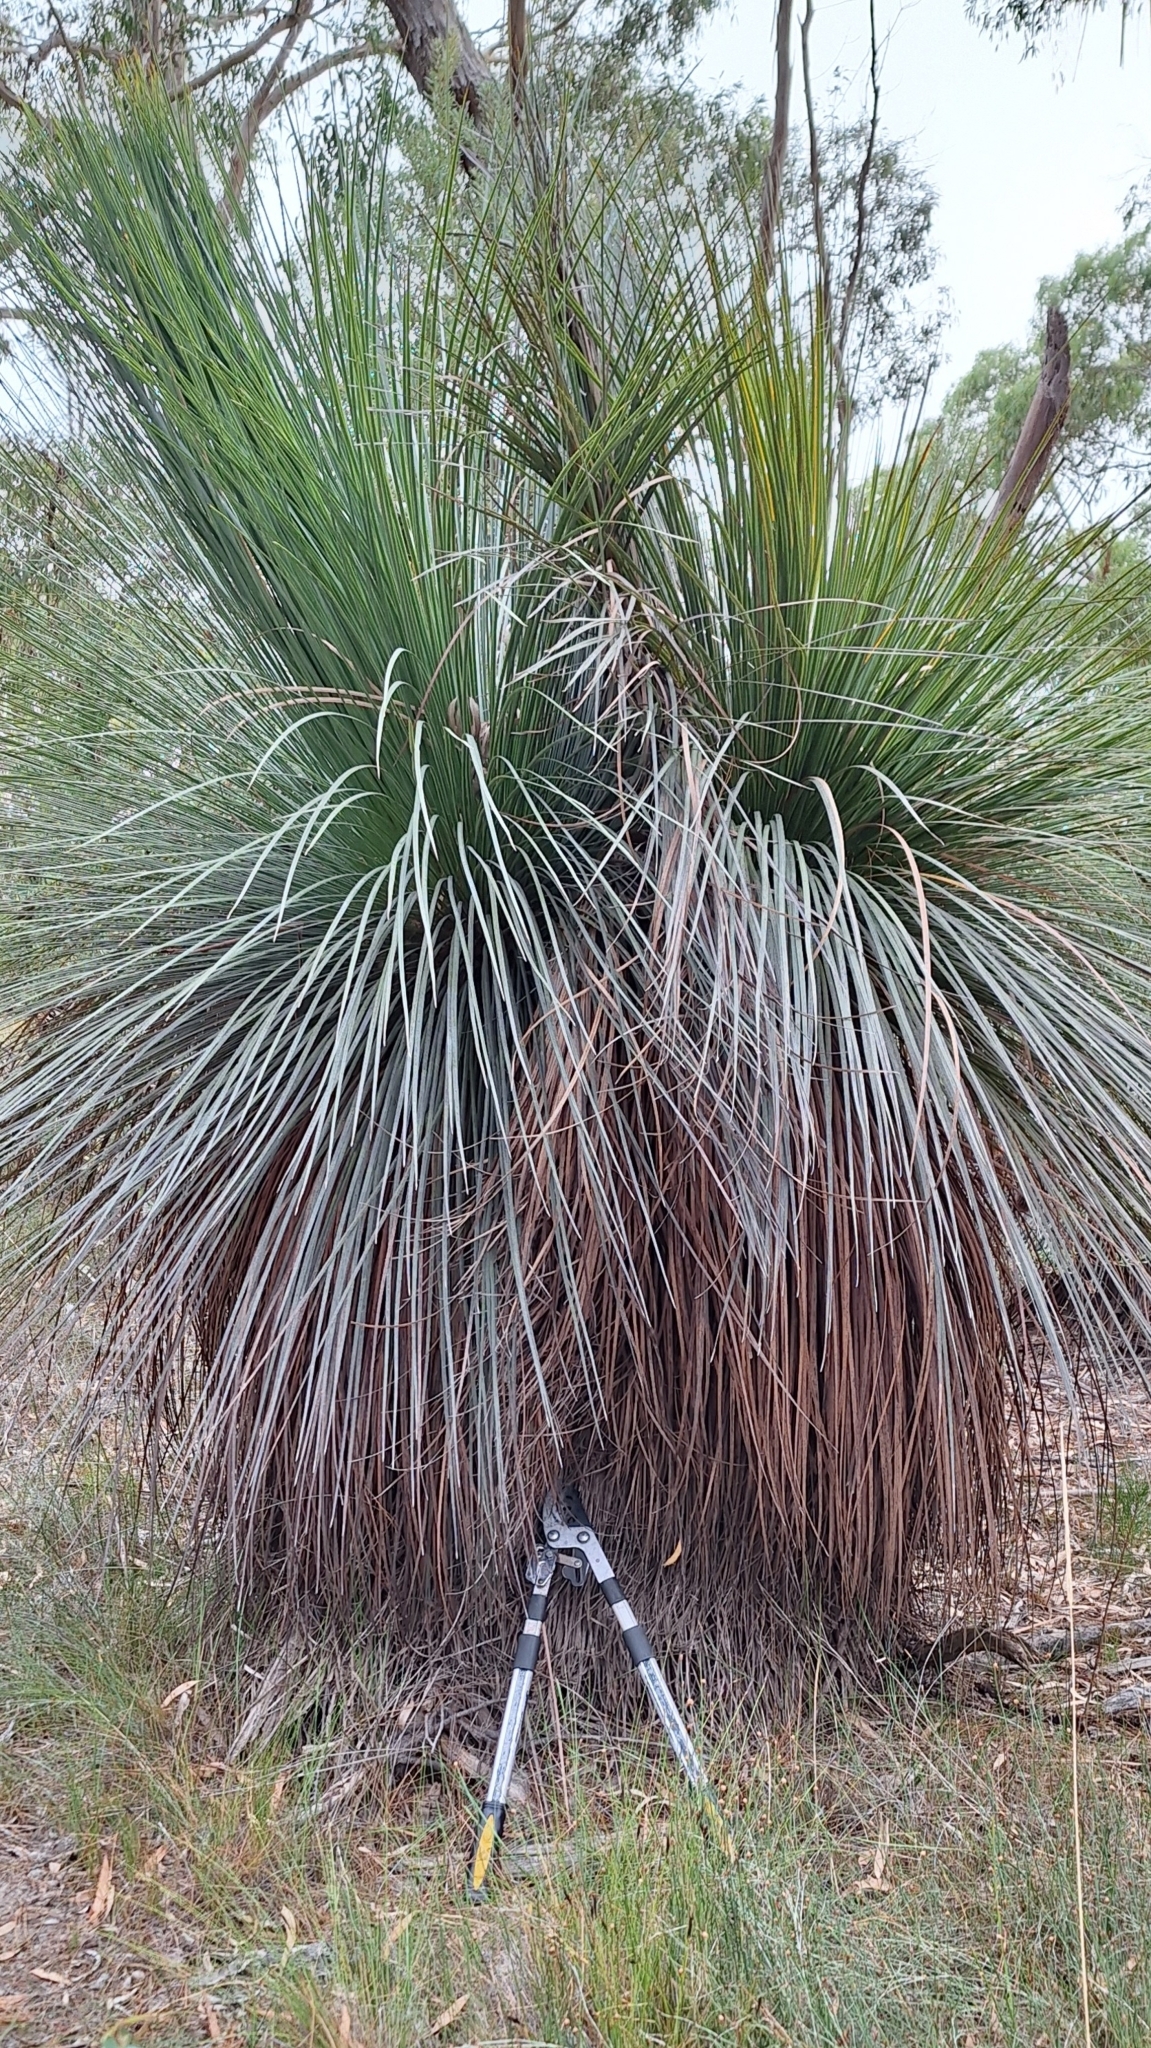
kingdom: Plantae
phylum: Tracheophyta
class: Liliopsida
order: Asparagales
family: Asphodelaceae
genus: Xanthorrhoea
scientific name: Xanthorrhoea semiplana
